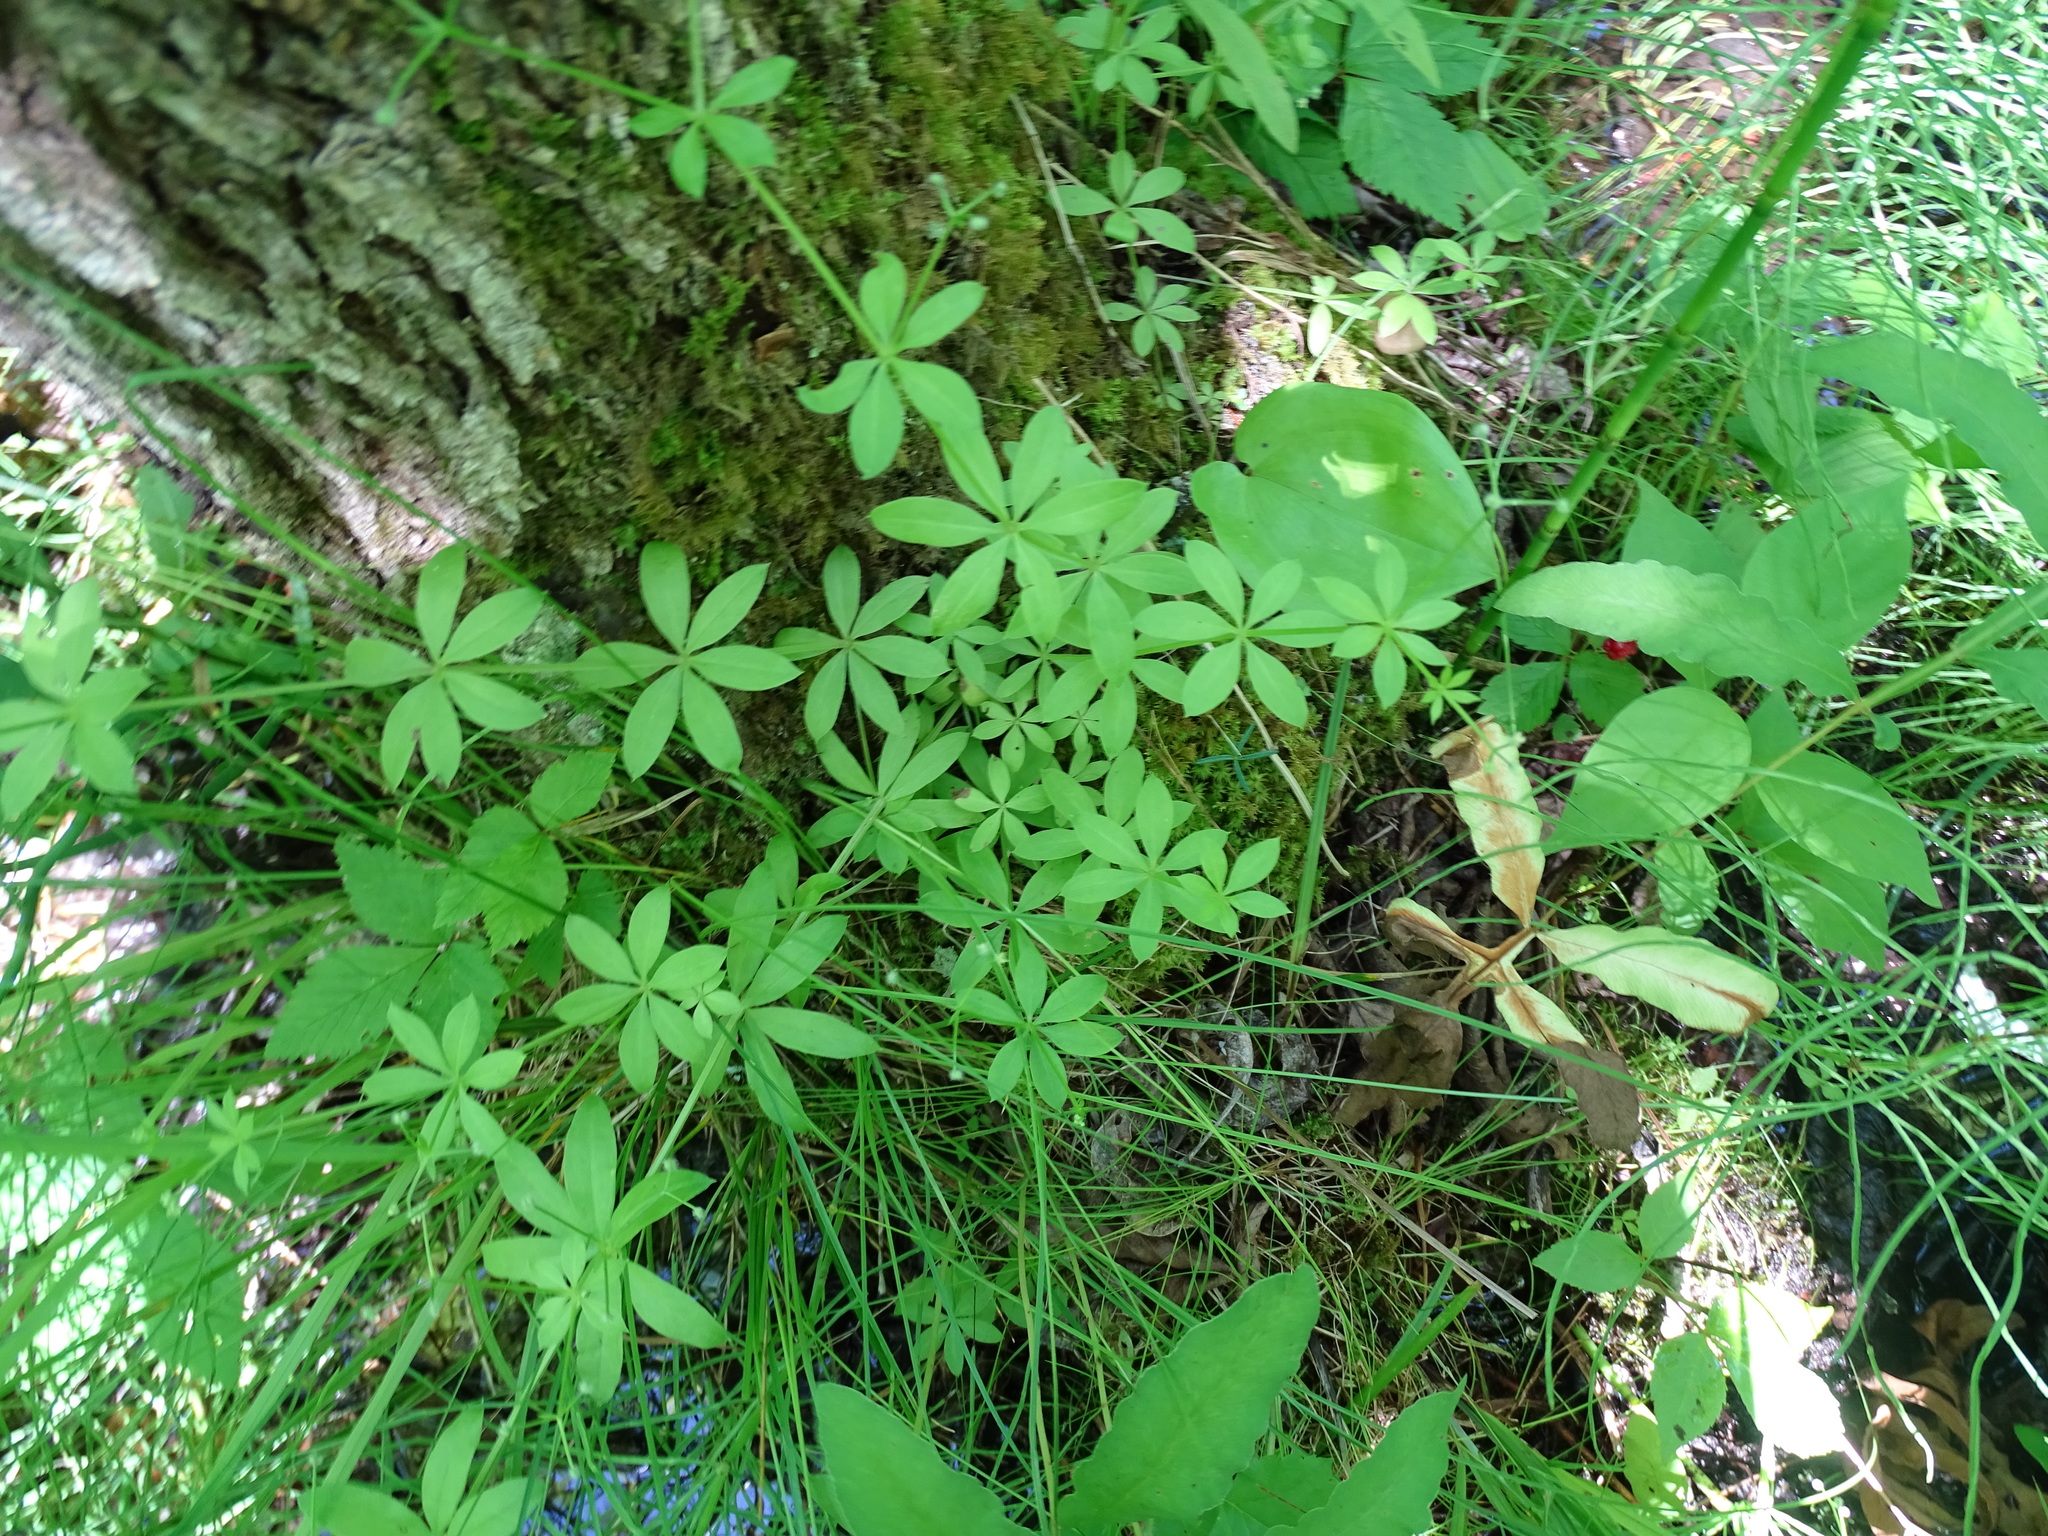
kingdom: Plantae
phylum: Tracheophyta
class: Magnoliopsida
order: Gentianales
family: Rubiaceae
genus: Galium
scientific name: Galium triflorum
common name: Fragrant bedstraw
